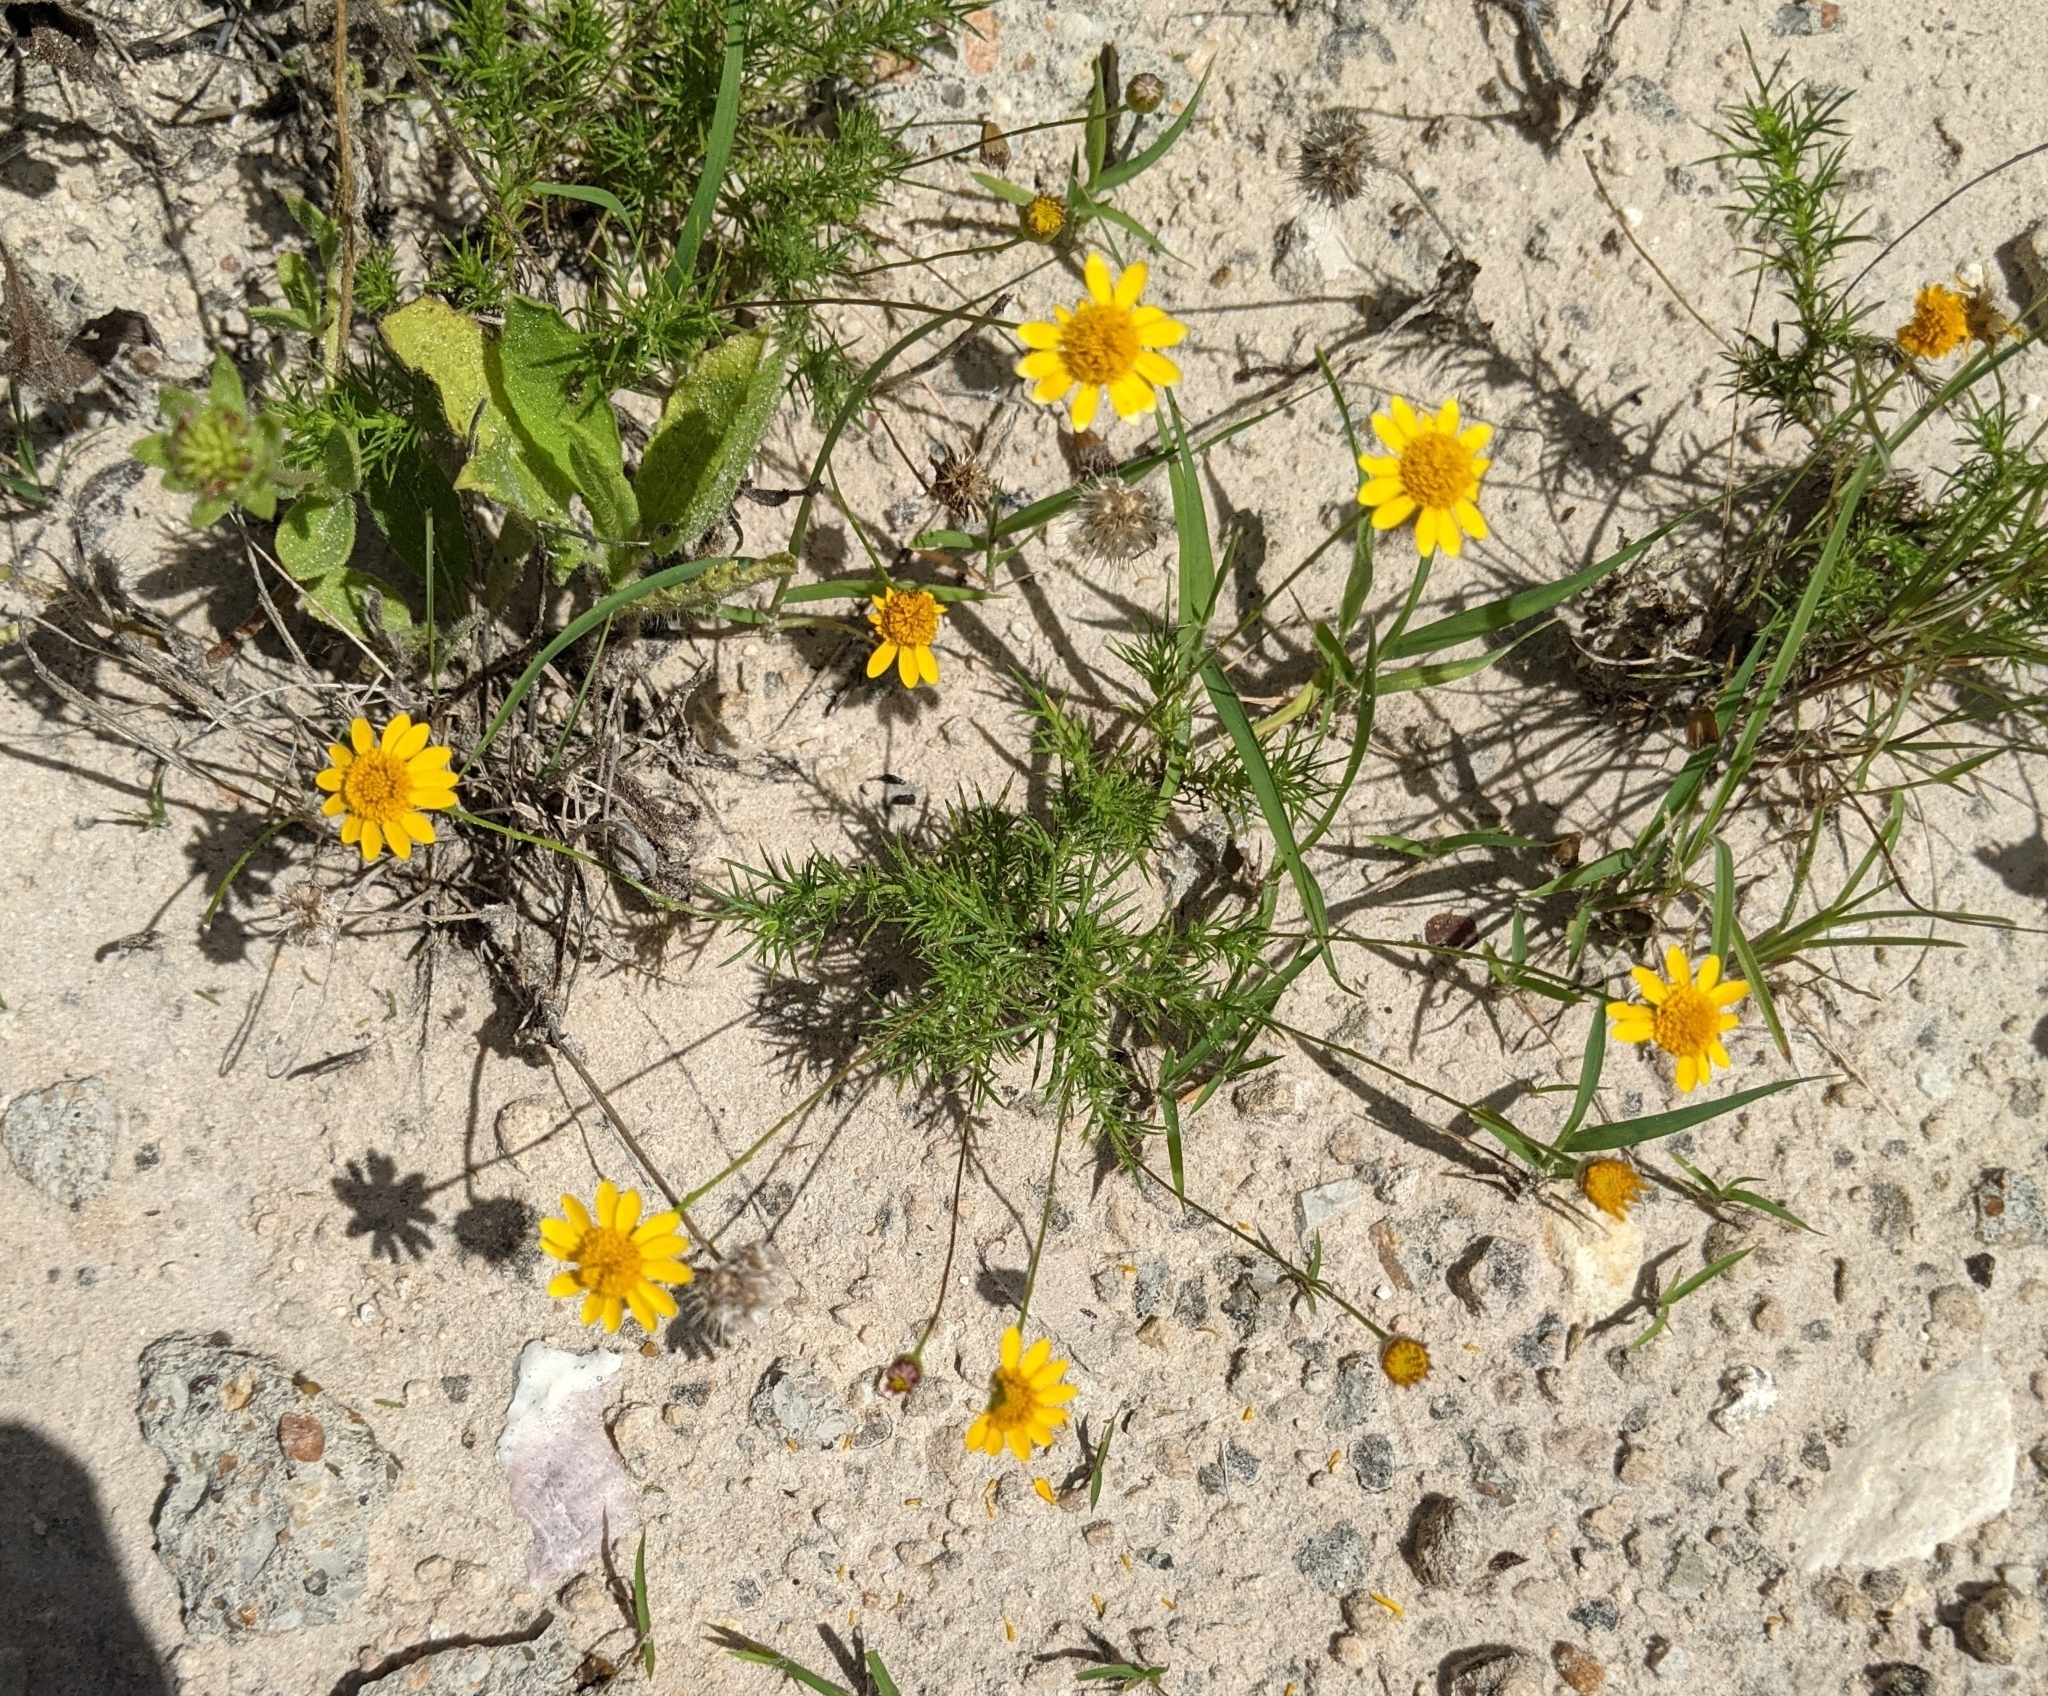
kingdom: Plantae
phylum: Tracheophyta
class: Magnoliopsida
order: Asterales
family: Asteraceae
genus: Thymophylla
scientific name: Thymophylla tenuiloba
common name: Dahlberg's daisy
